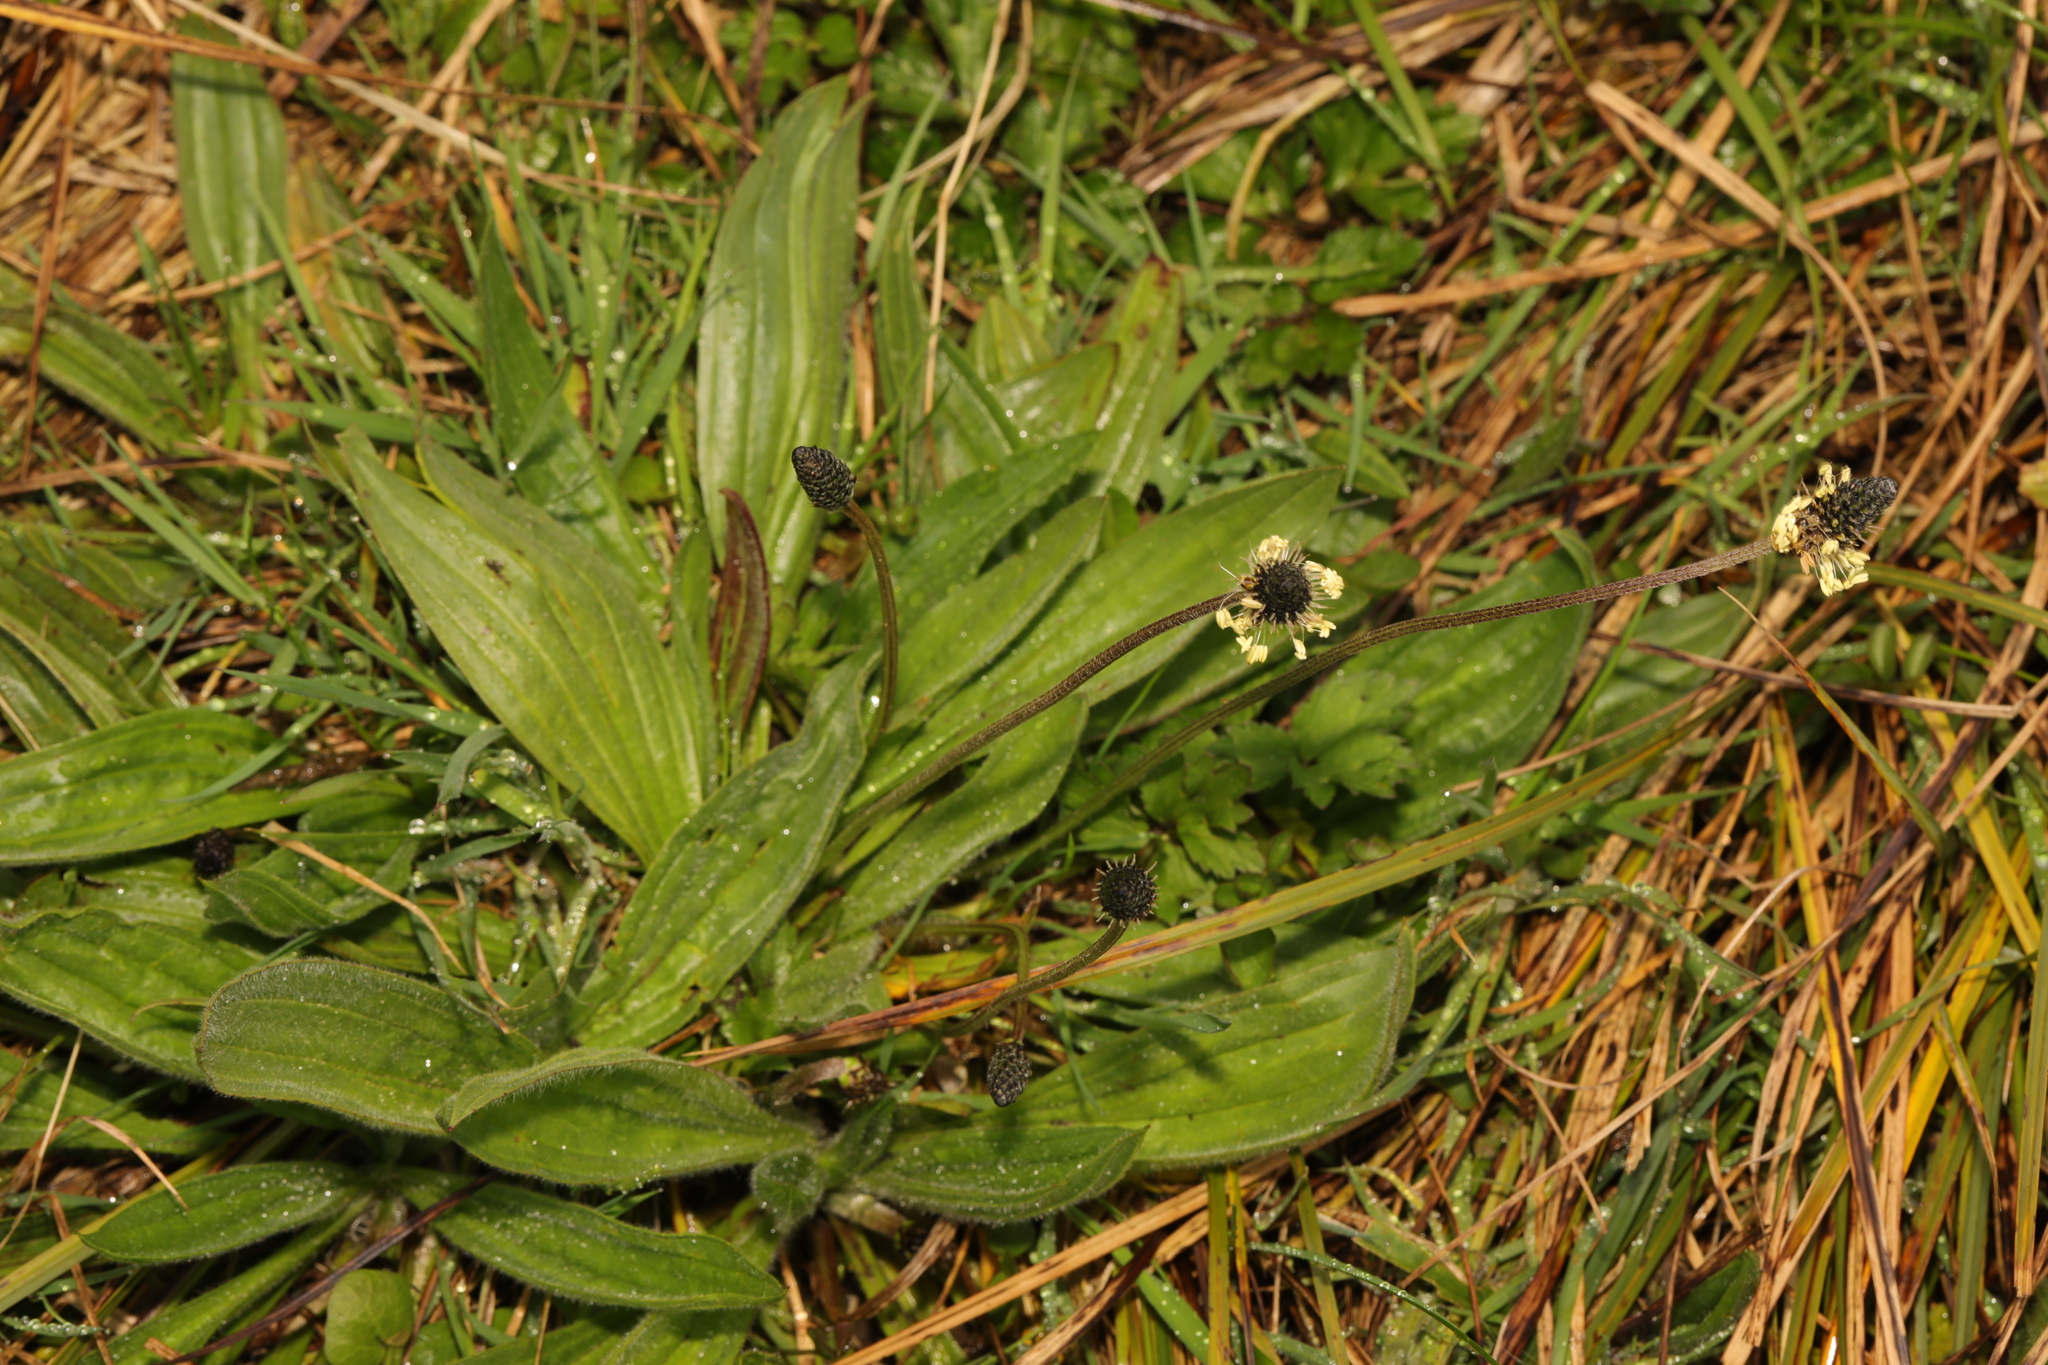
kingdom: Plantae
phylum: Tracheophyta
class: Magnoliopsida
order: Lamiales
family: Plantaginaceae
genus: Plantago
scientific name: Plantago lanceolata
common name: Ribwort plantain
